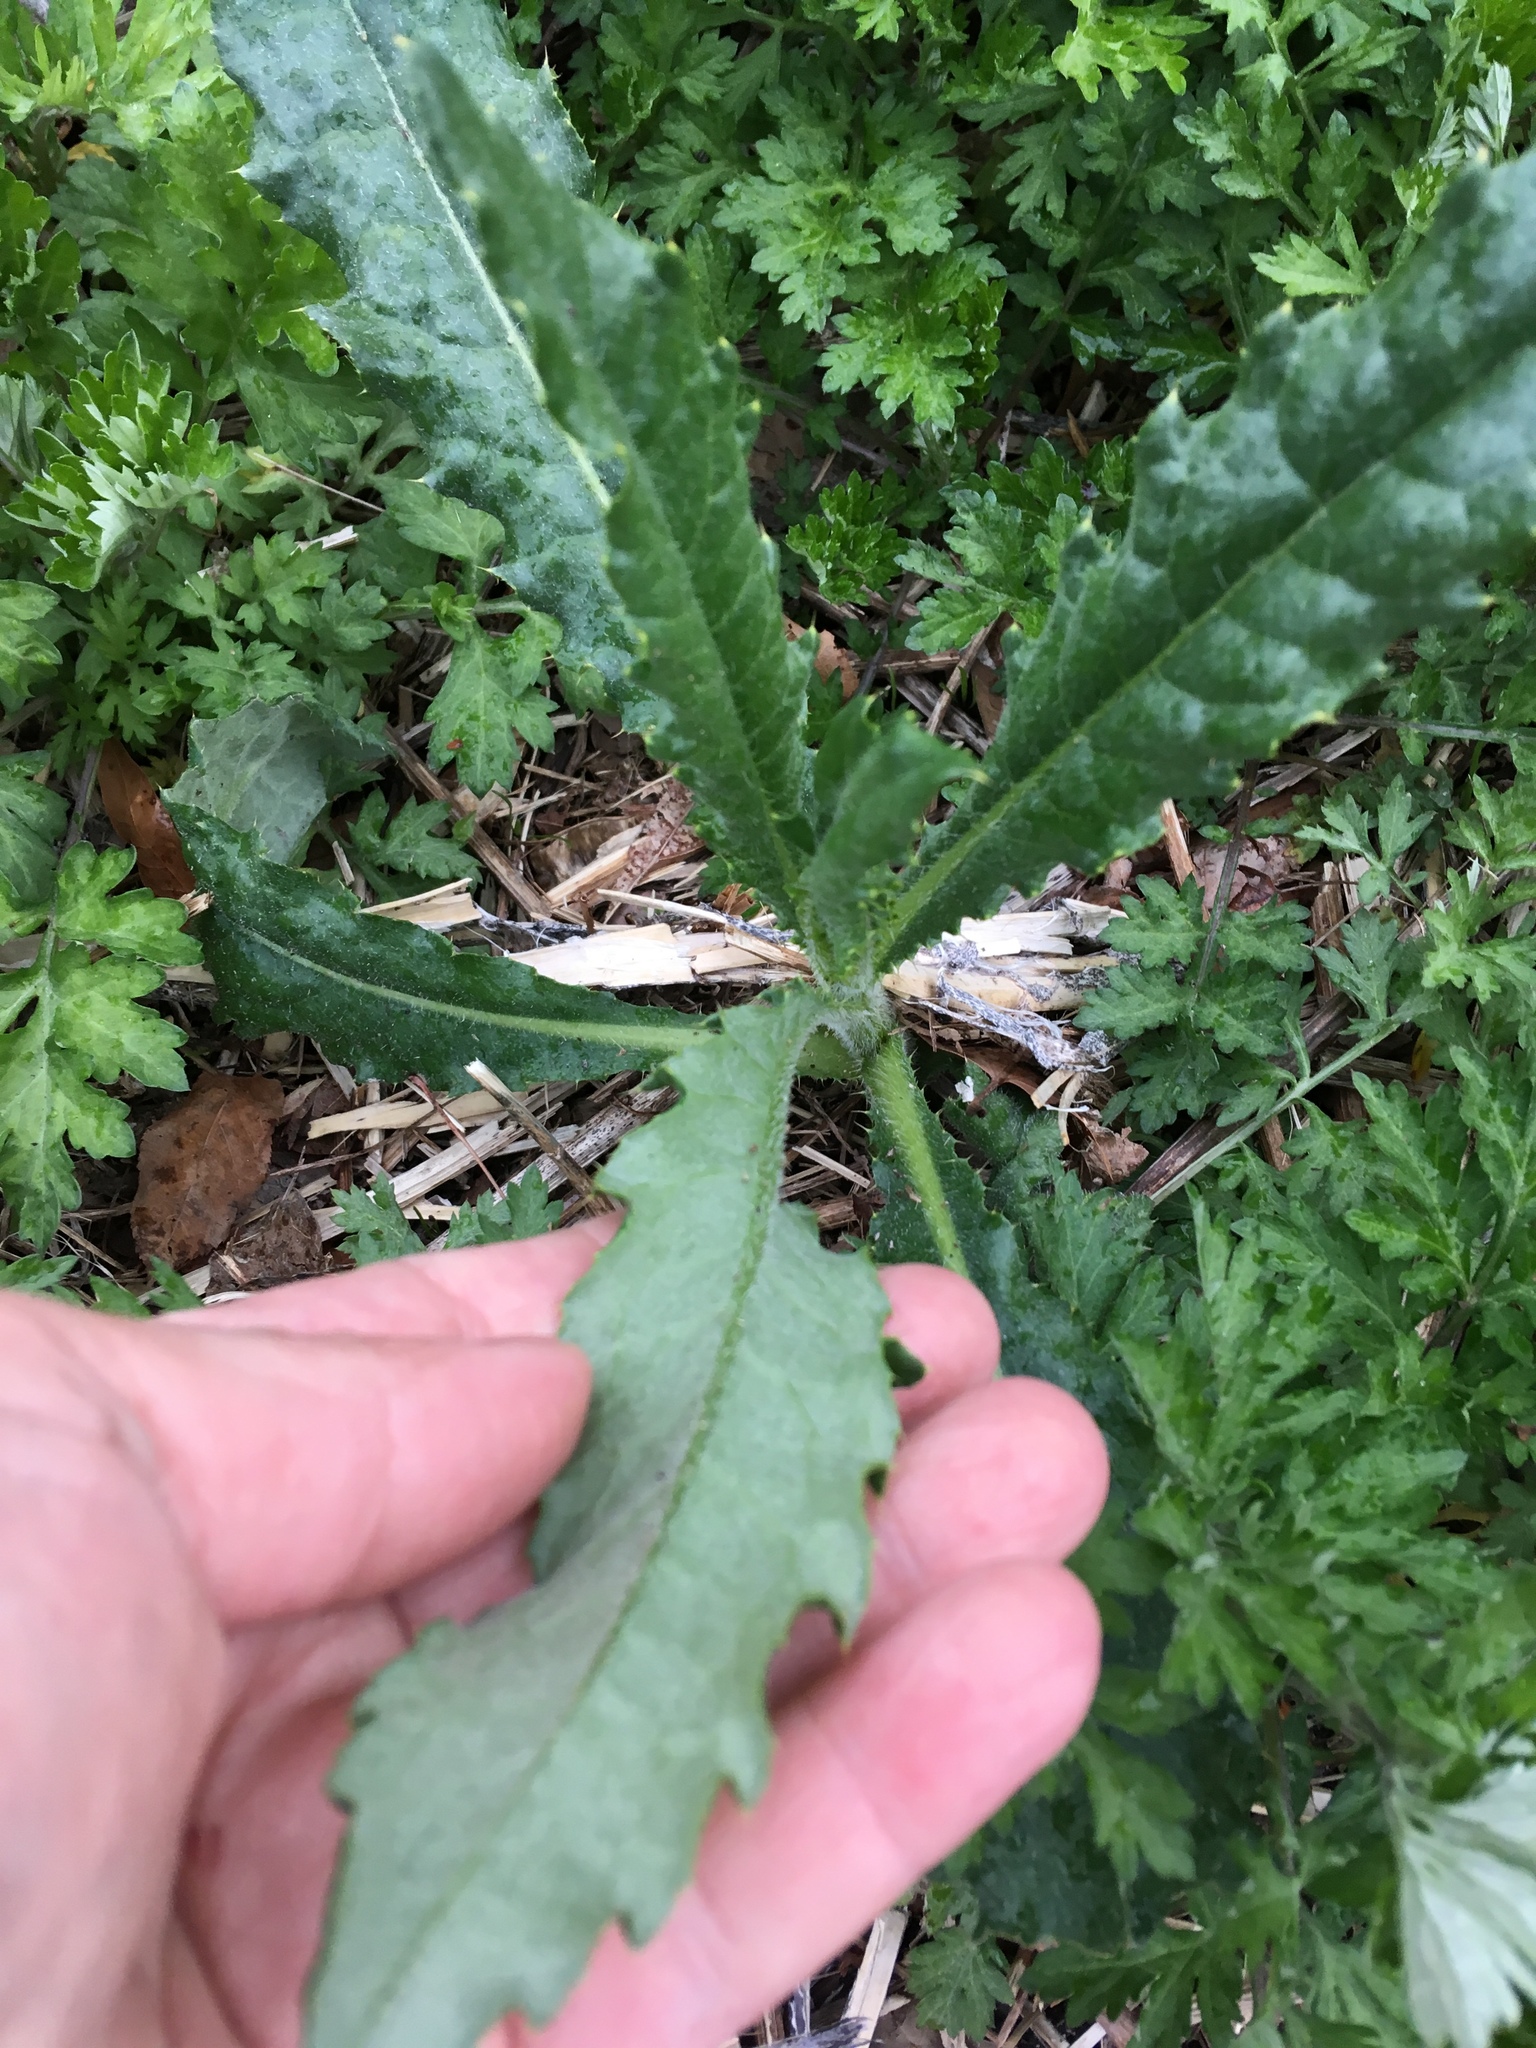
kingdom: Plantae
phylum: Tracheophyta
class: Magnoliopsida
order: Asterales
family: Asteraceae
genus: Cirsium
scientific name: Cirsium arvense
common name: Creeping thistle
